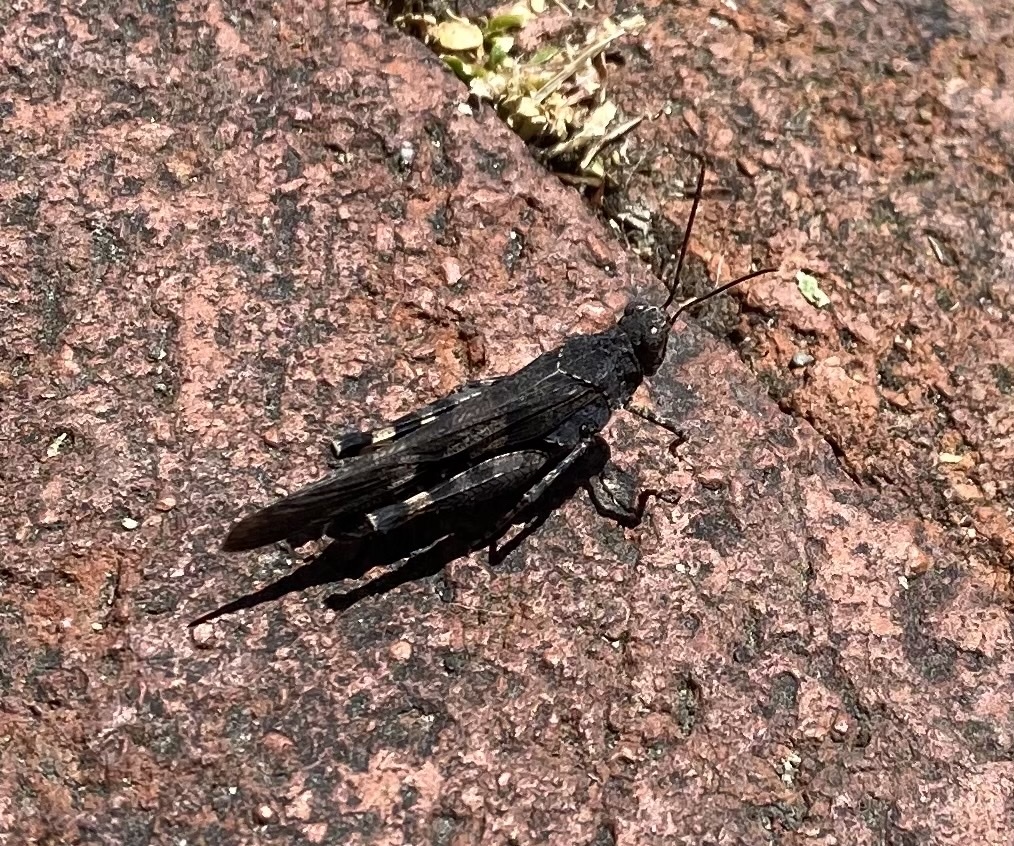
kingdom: Animalia
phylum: Arthropoda
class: Insecta
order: Orthoptera
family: Acrididae
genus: Trimerotropis
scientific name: Trimerotropis fontana
